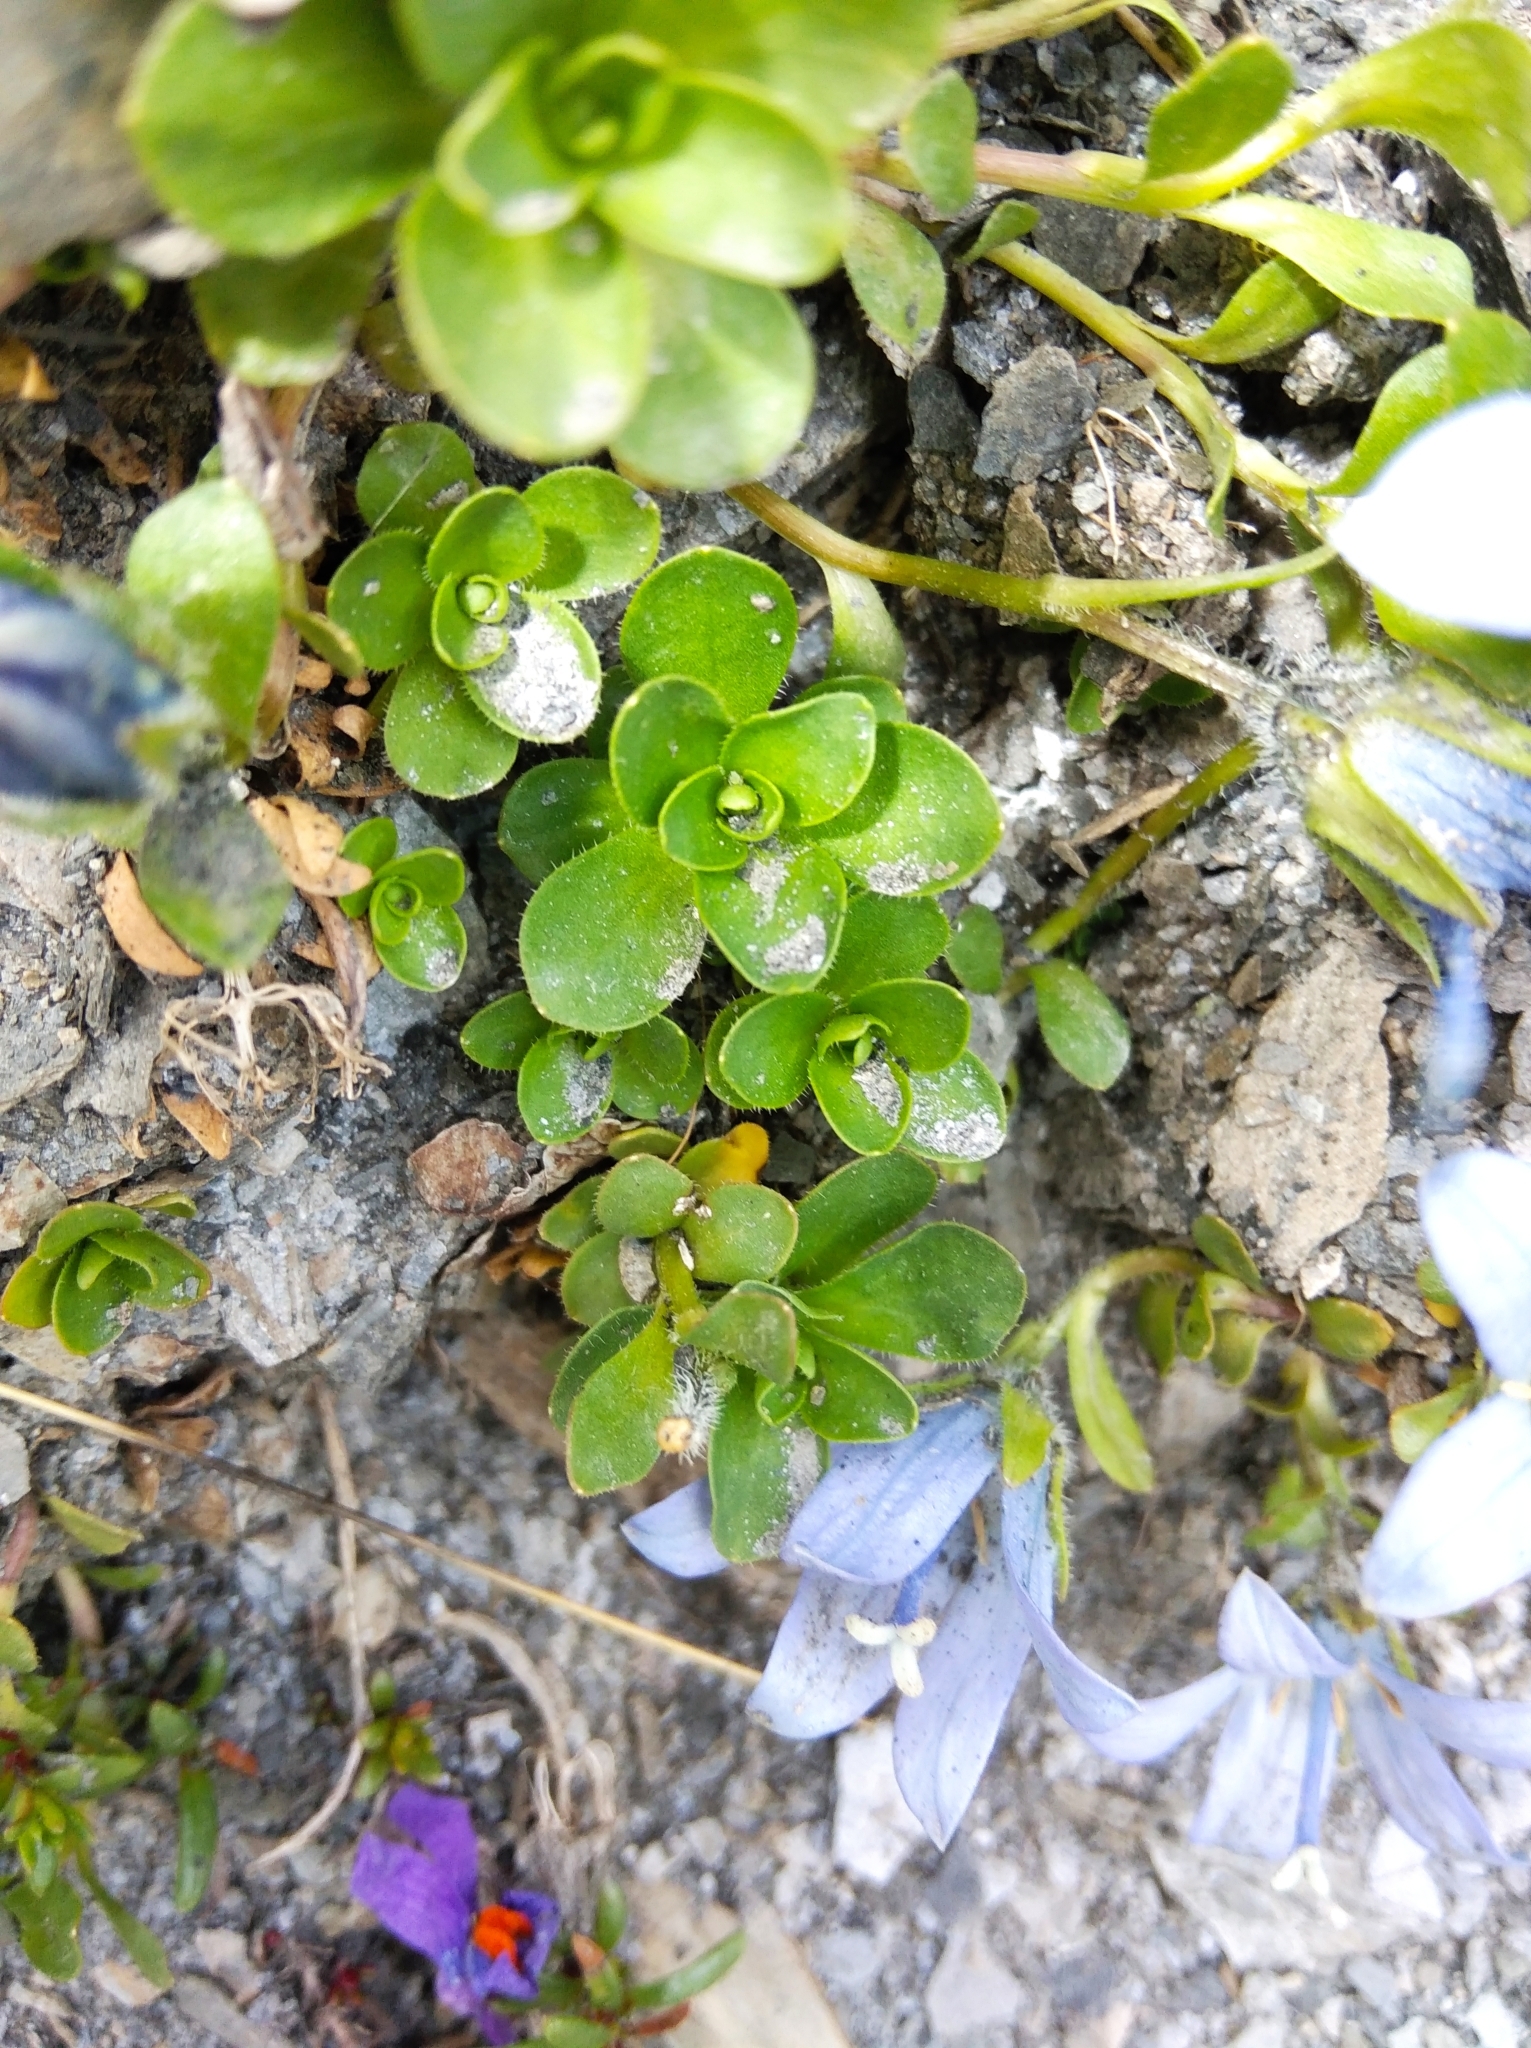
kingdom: Plantae
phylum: Tracheophyta
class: Magnoliopsida
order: Asterales
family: Campanulaceae
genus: Campanula
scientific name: Campanula cenisia
